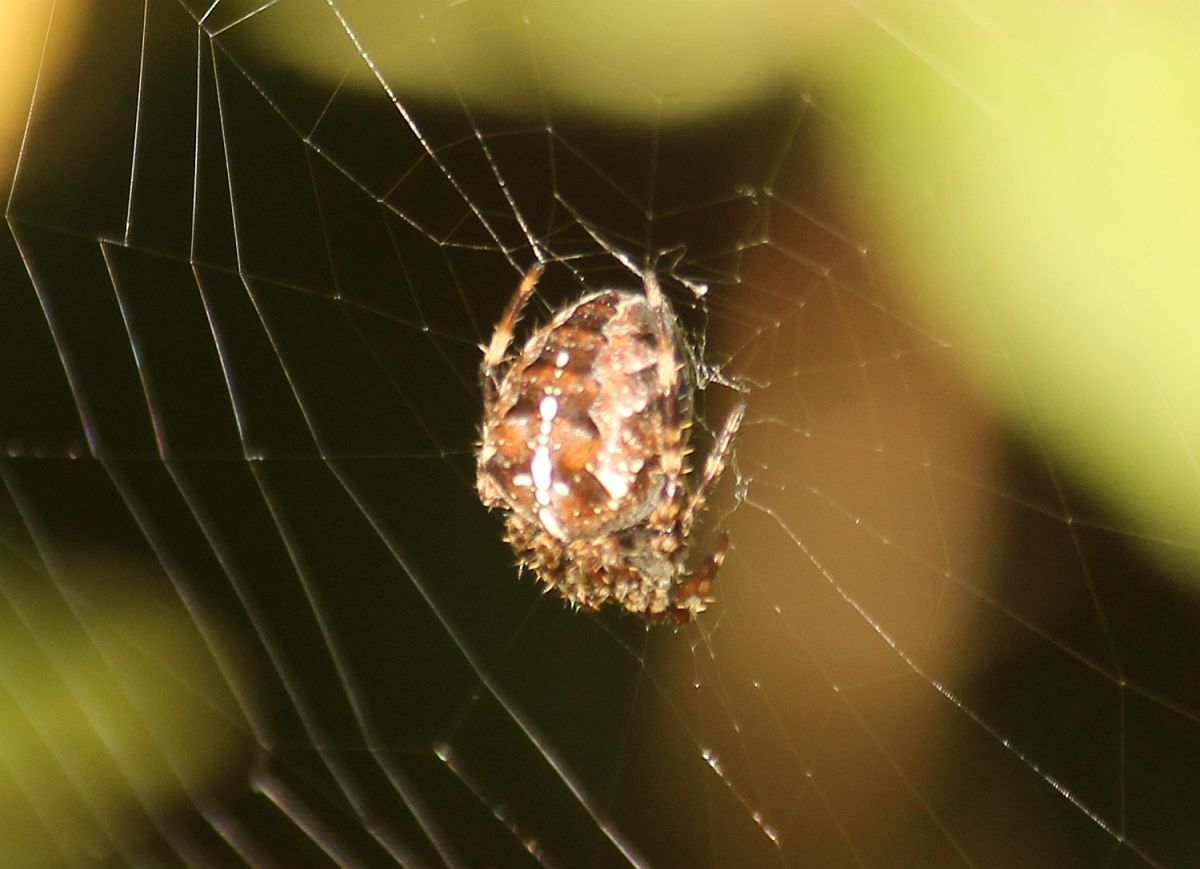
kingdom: Animalia
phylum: Arthropoda
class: Arachnida
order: Araneae
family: Araneidae
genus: Araneus
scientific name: Araneus diadematus
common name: Cross orbweaver
